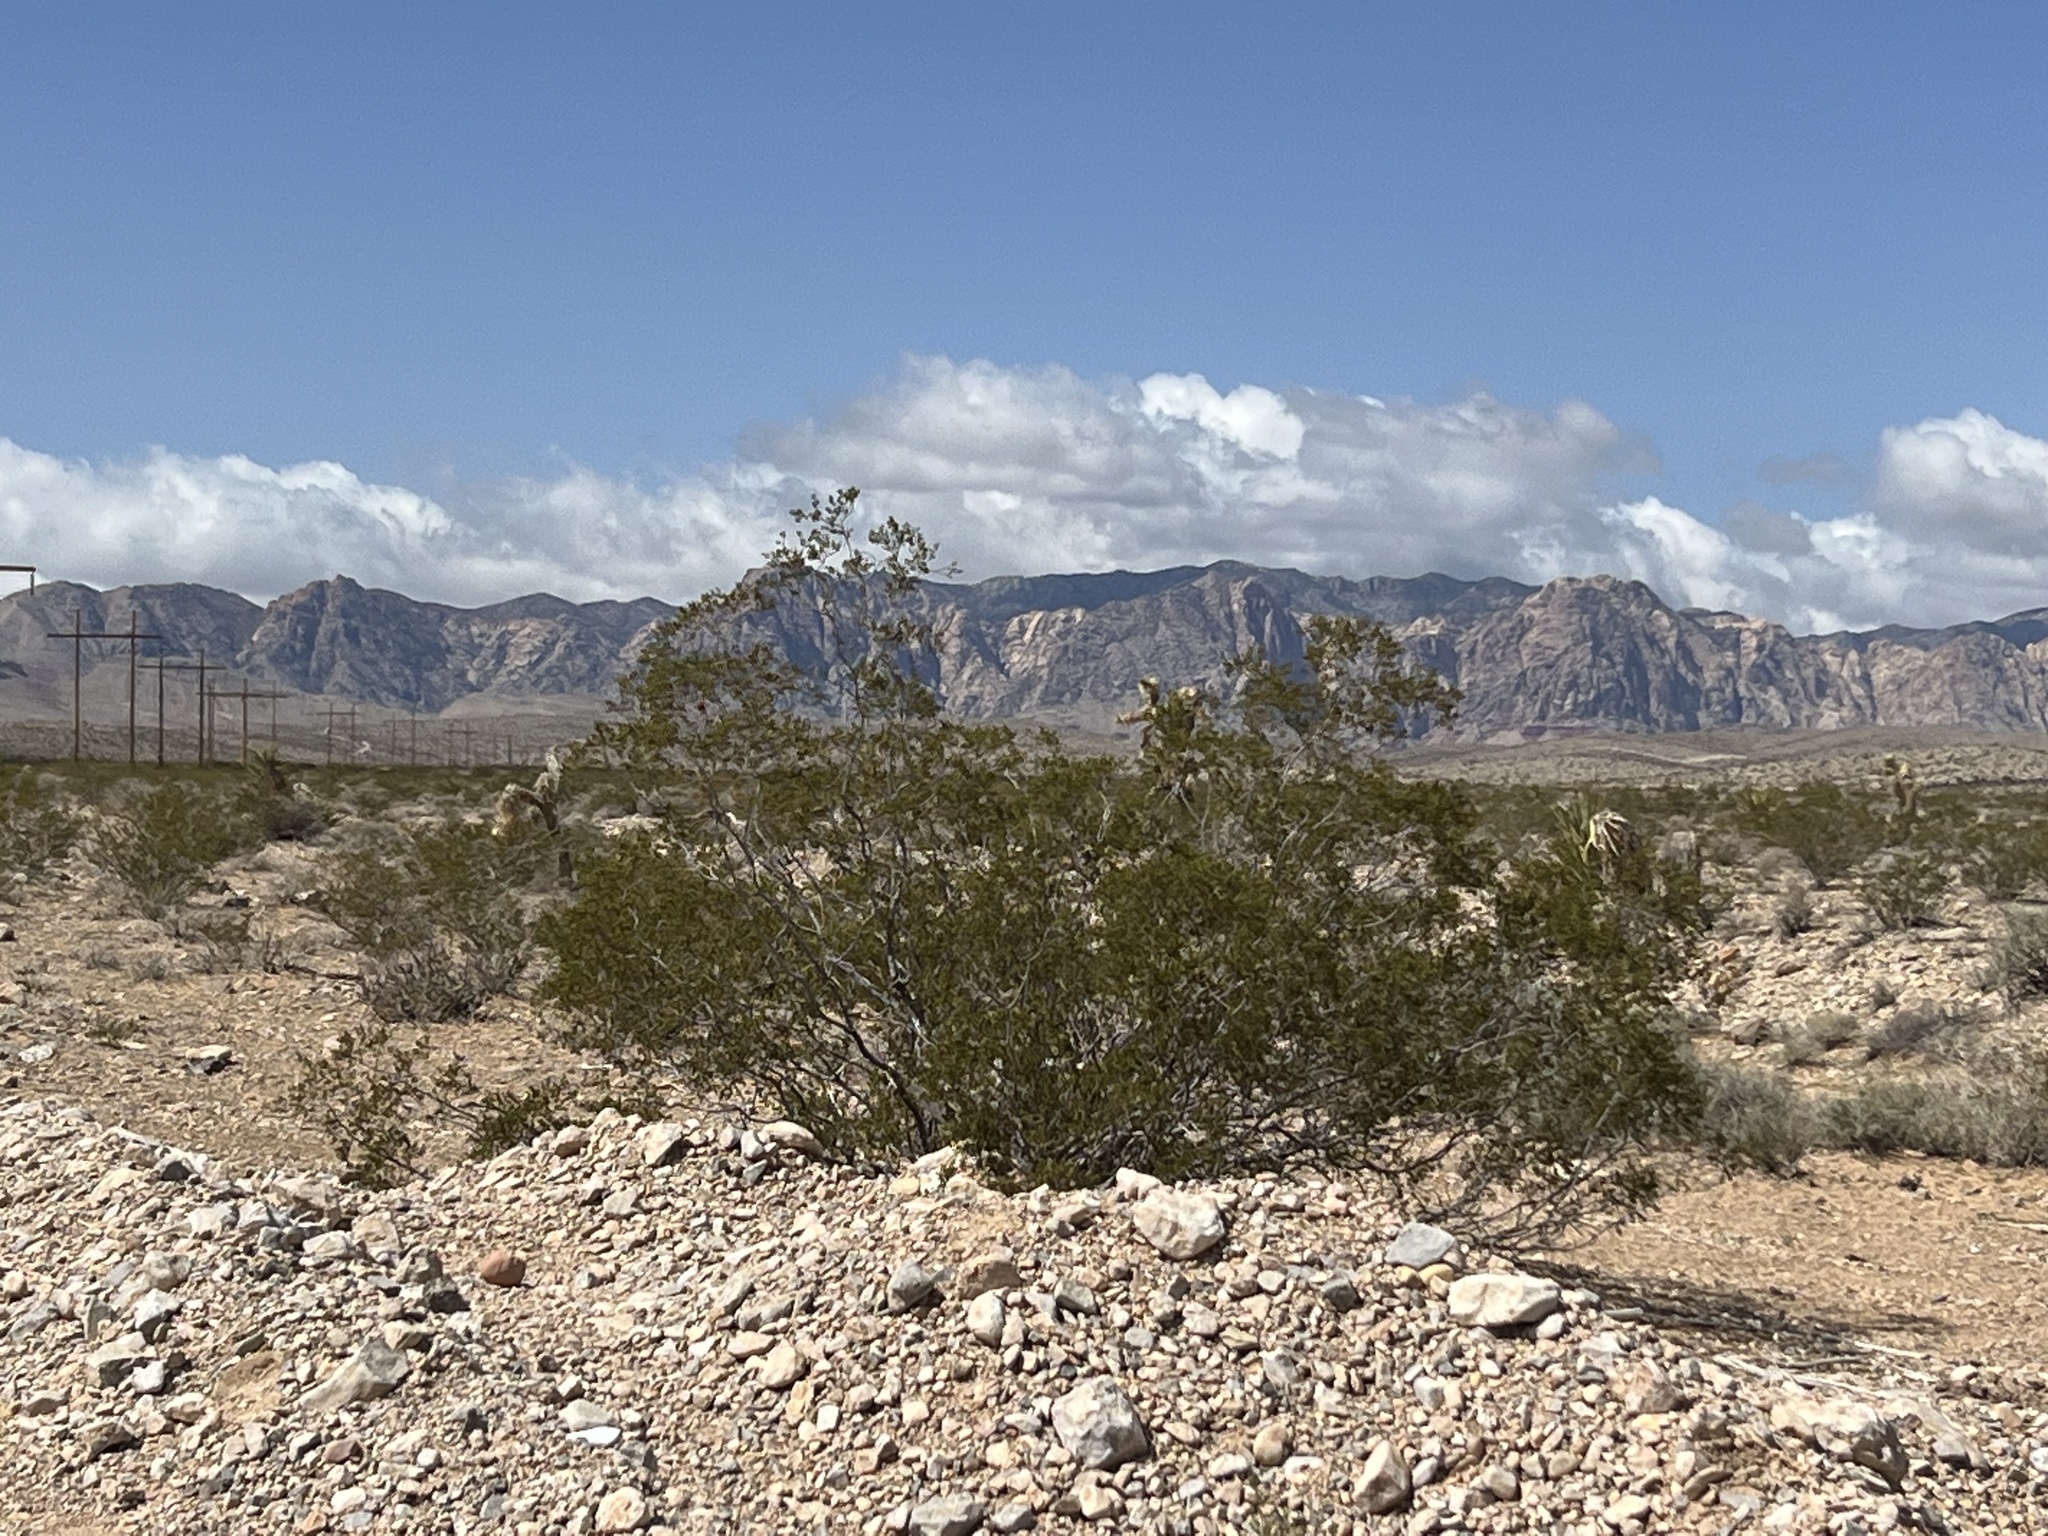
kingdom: Plantae
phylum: Tracheophyta
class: Magnoliopsida
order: Zygophyllales
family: Zygophyllaceae
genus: Larrea
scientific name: Larrea tridentata
